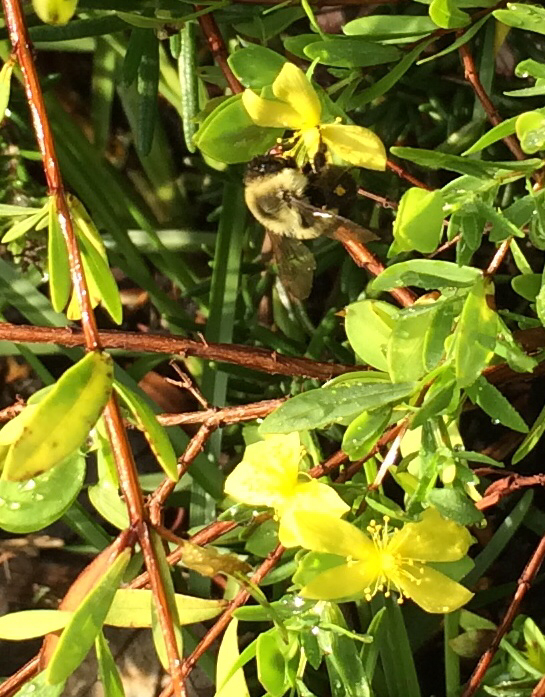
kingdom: Animalia
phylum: Arthropoda
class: Insecta
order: Hymenoptera
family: Apidae
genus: Bombus
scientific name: Bombus impatiens
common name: Common eastern bumble bee
